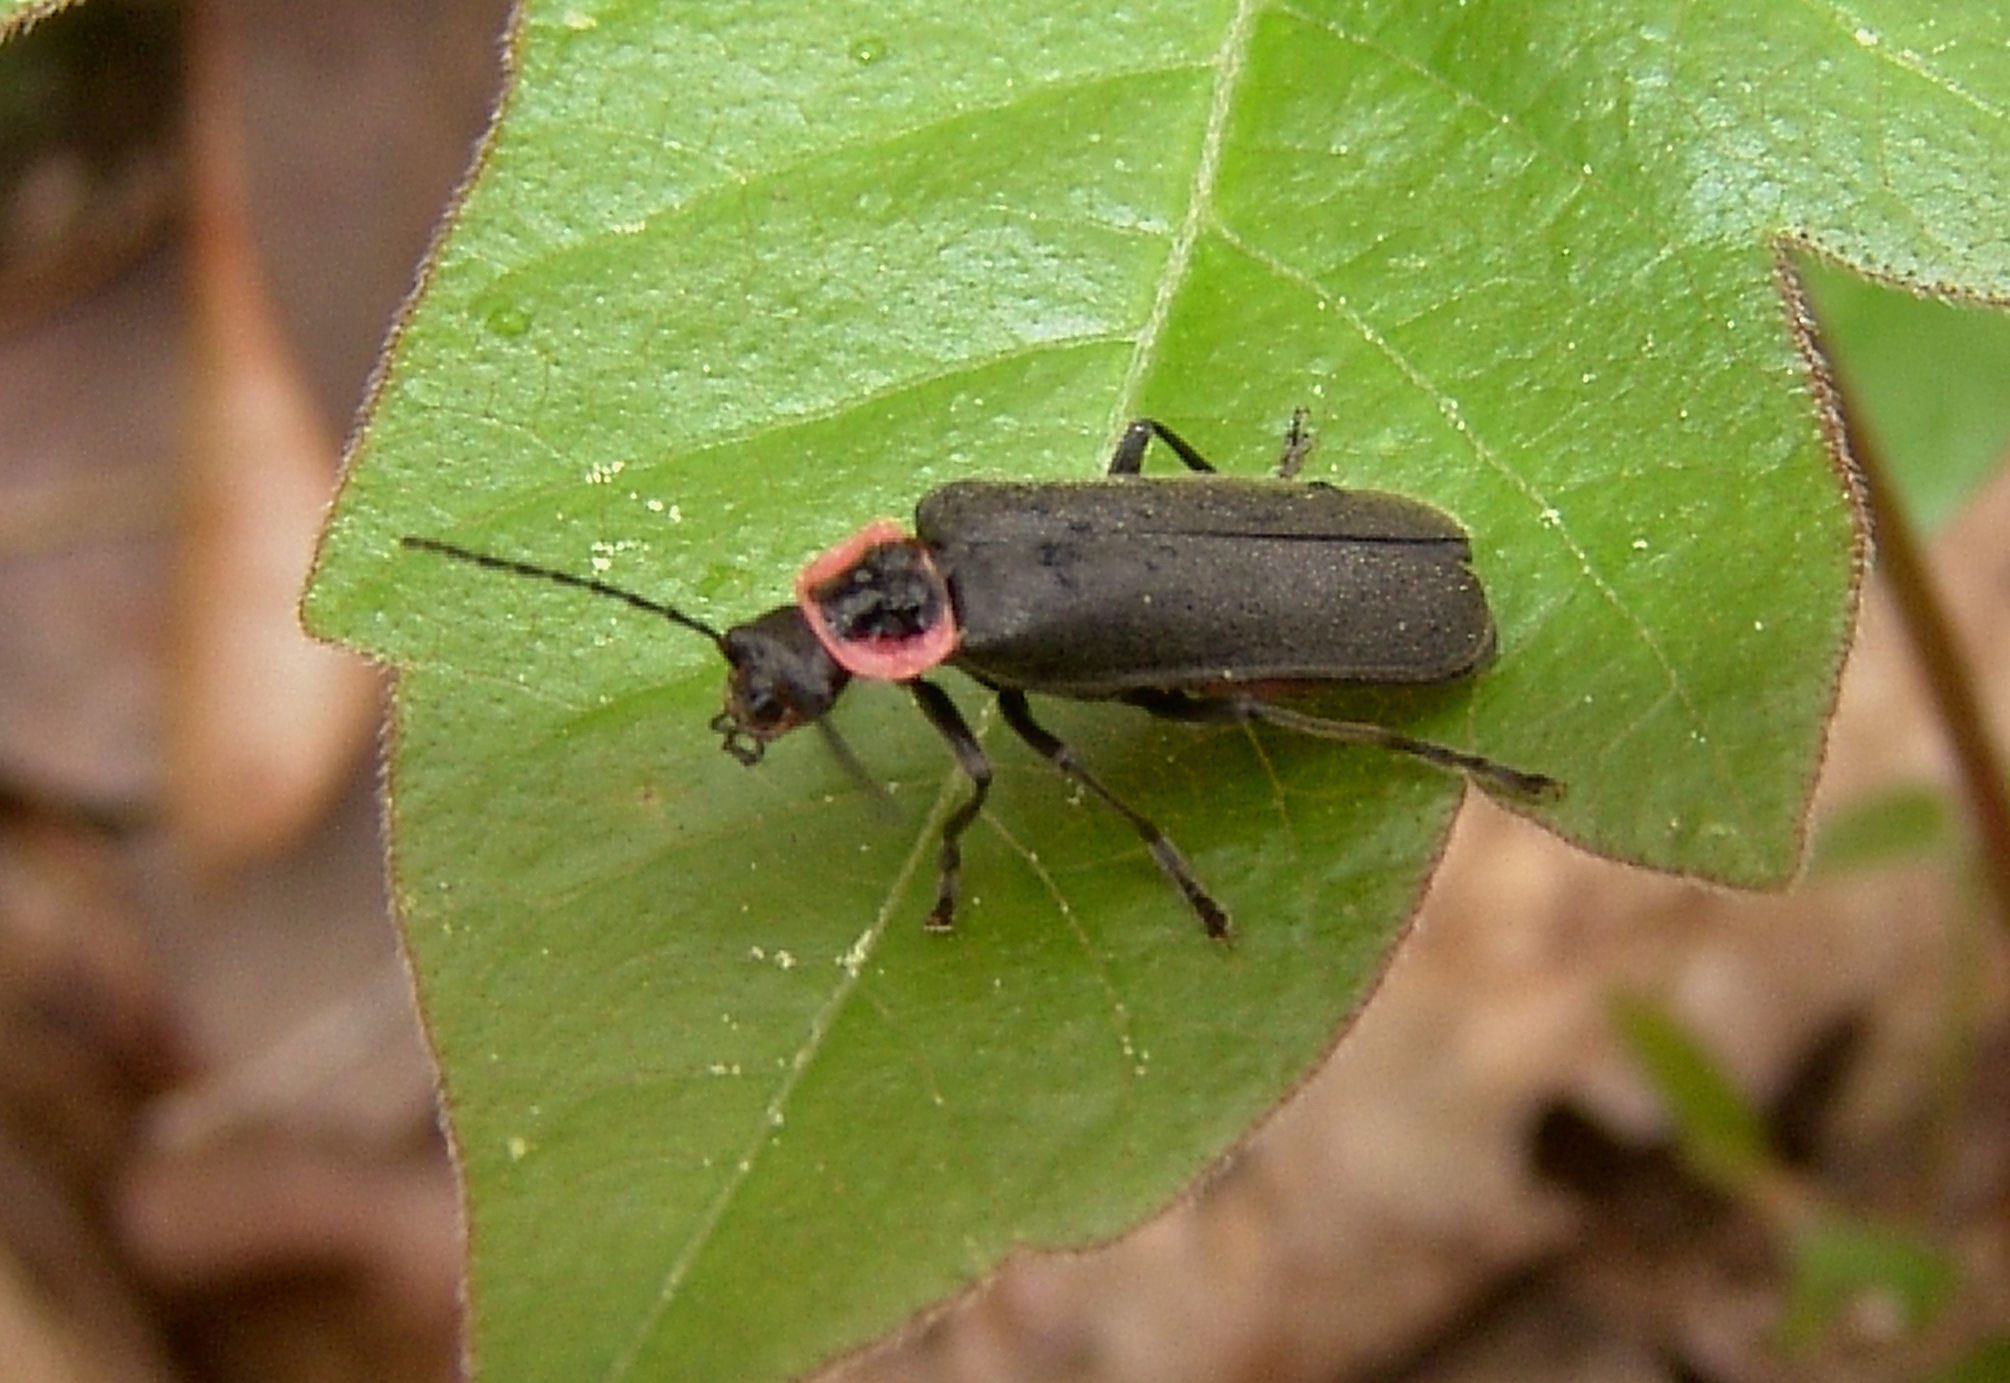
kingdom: Animalia
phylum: Arthropoda
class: Insecta
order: Coleoptera
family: Cantharidae
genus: Atalantycha
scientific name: Atalantycha neglecta
